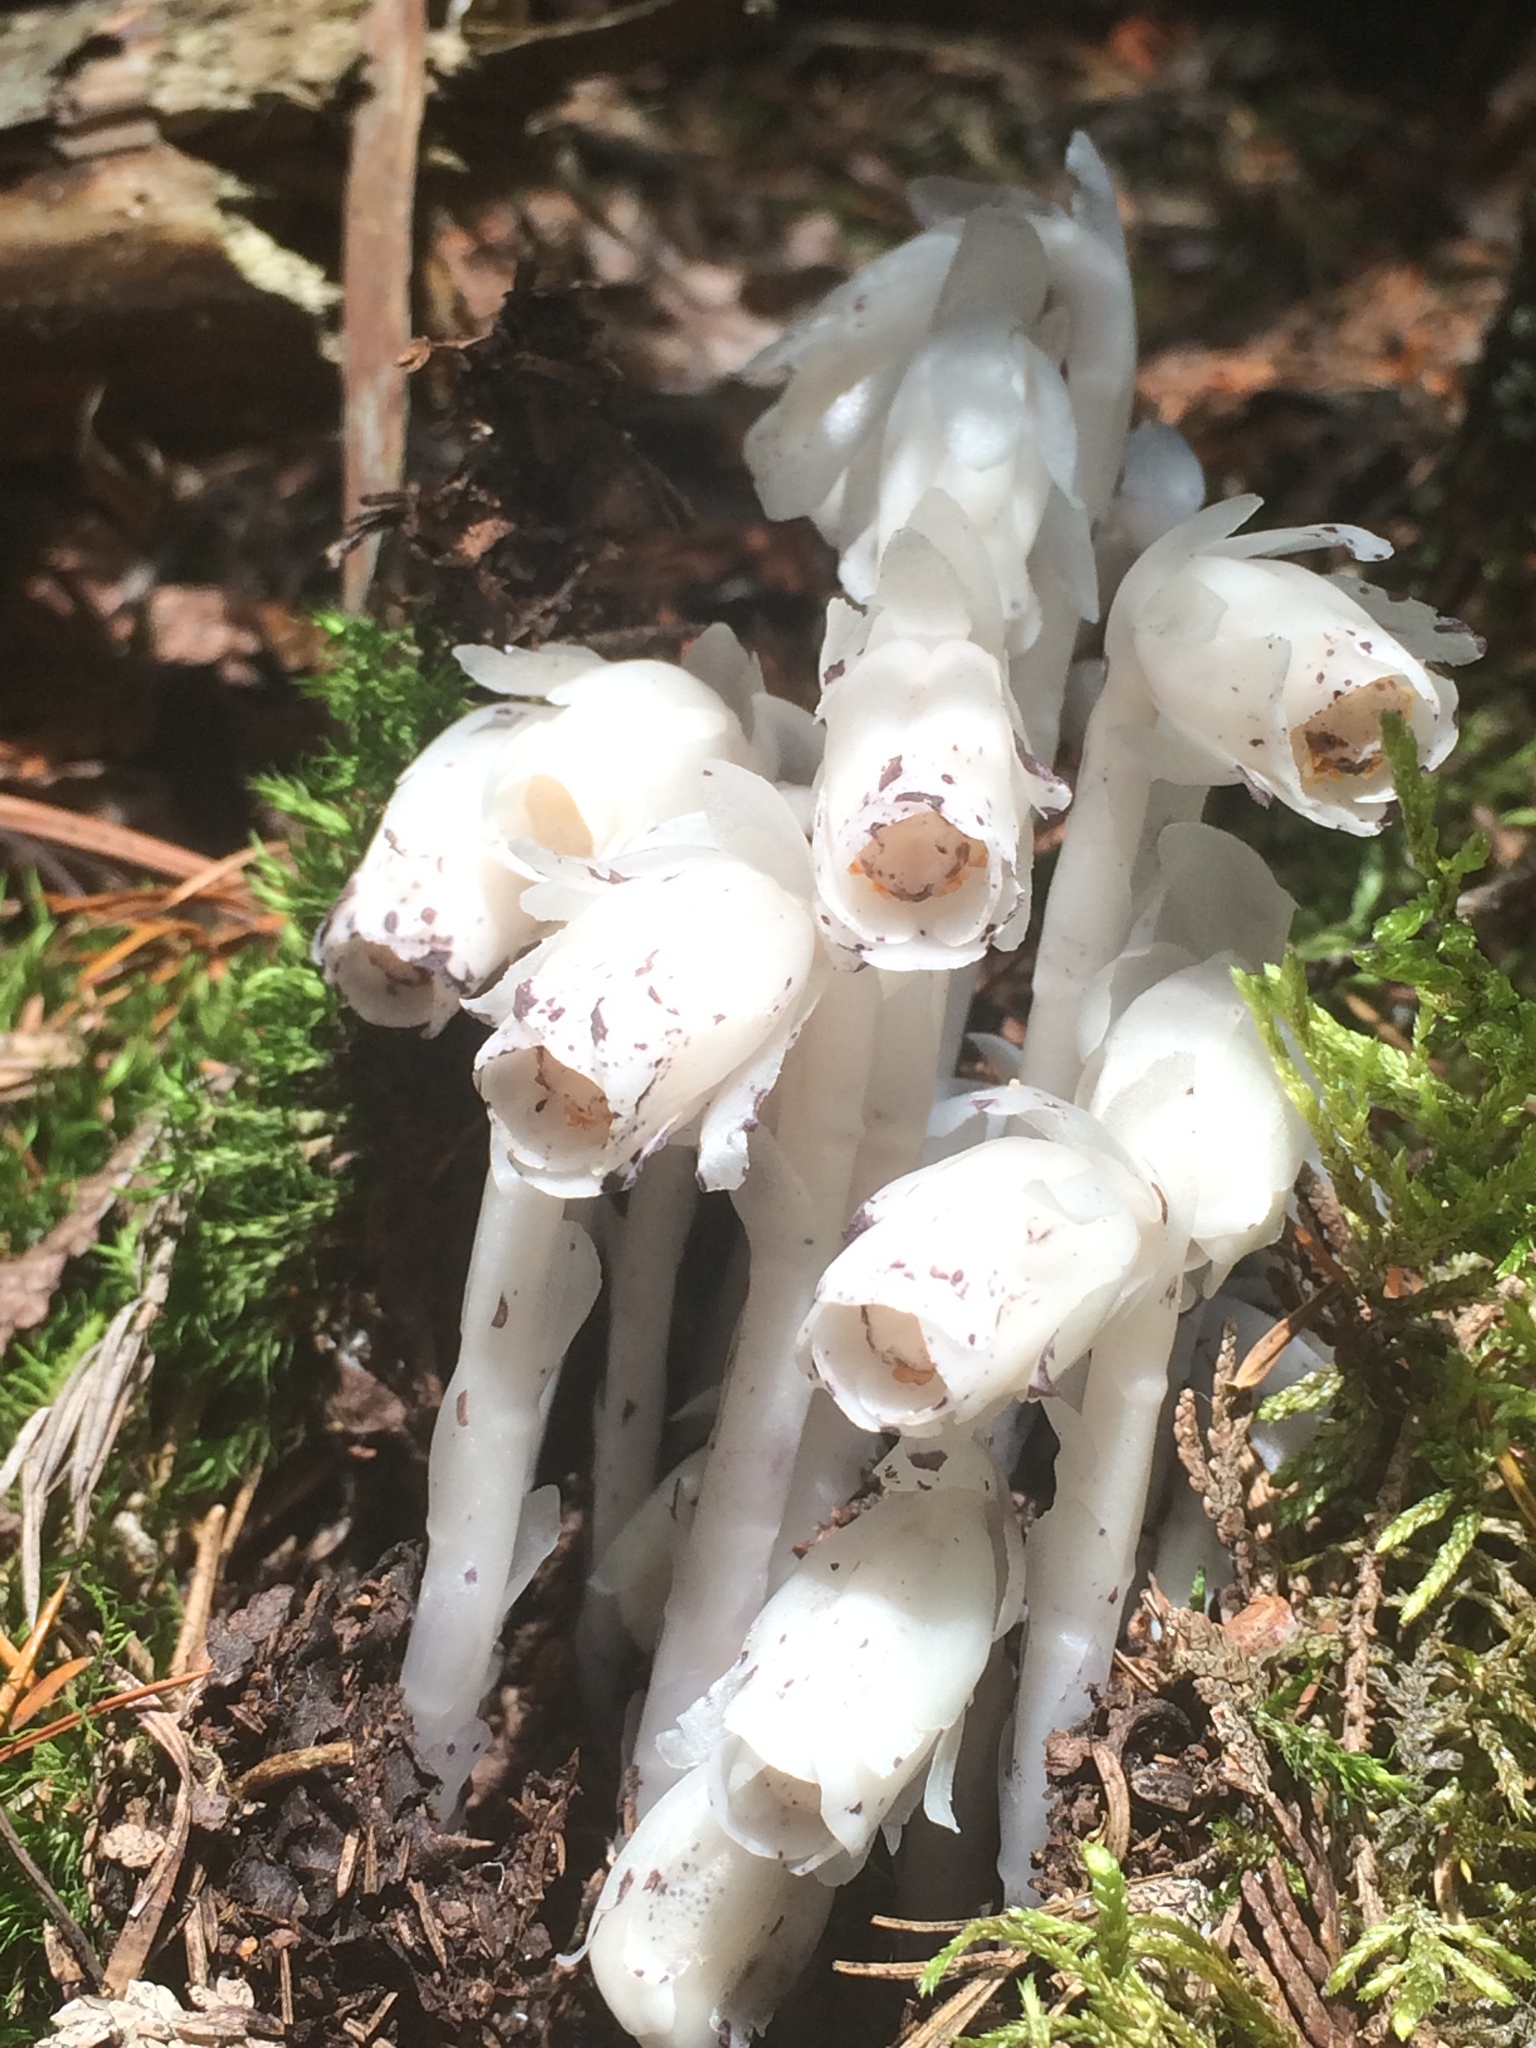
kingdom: Plantae
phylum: Tracheophyta
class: Magnoliopsida
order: Ericales
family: Ericaceae
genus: Monotropa
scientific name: Monotropa uniflora
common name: Convulsion root
